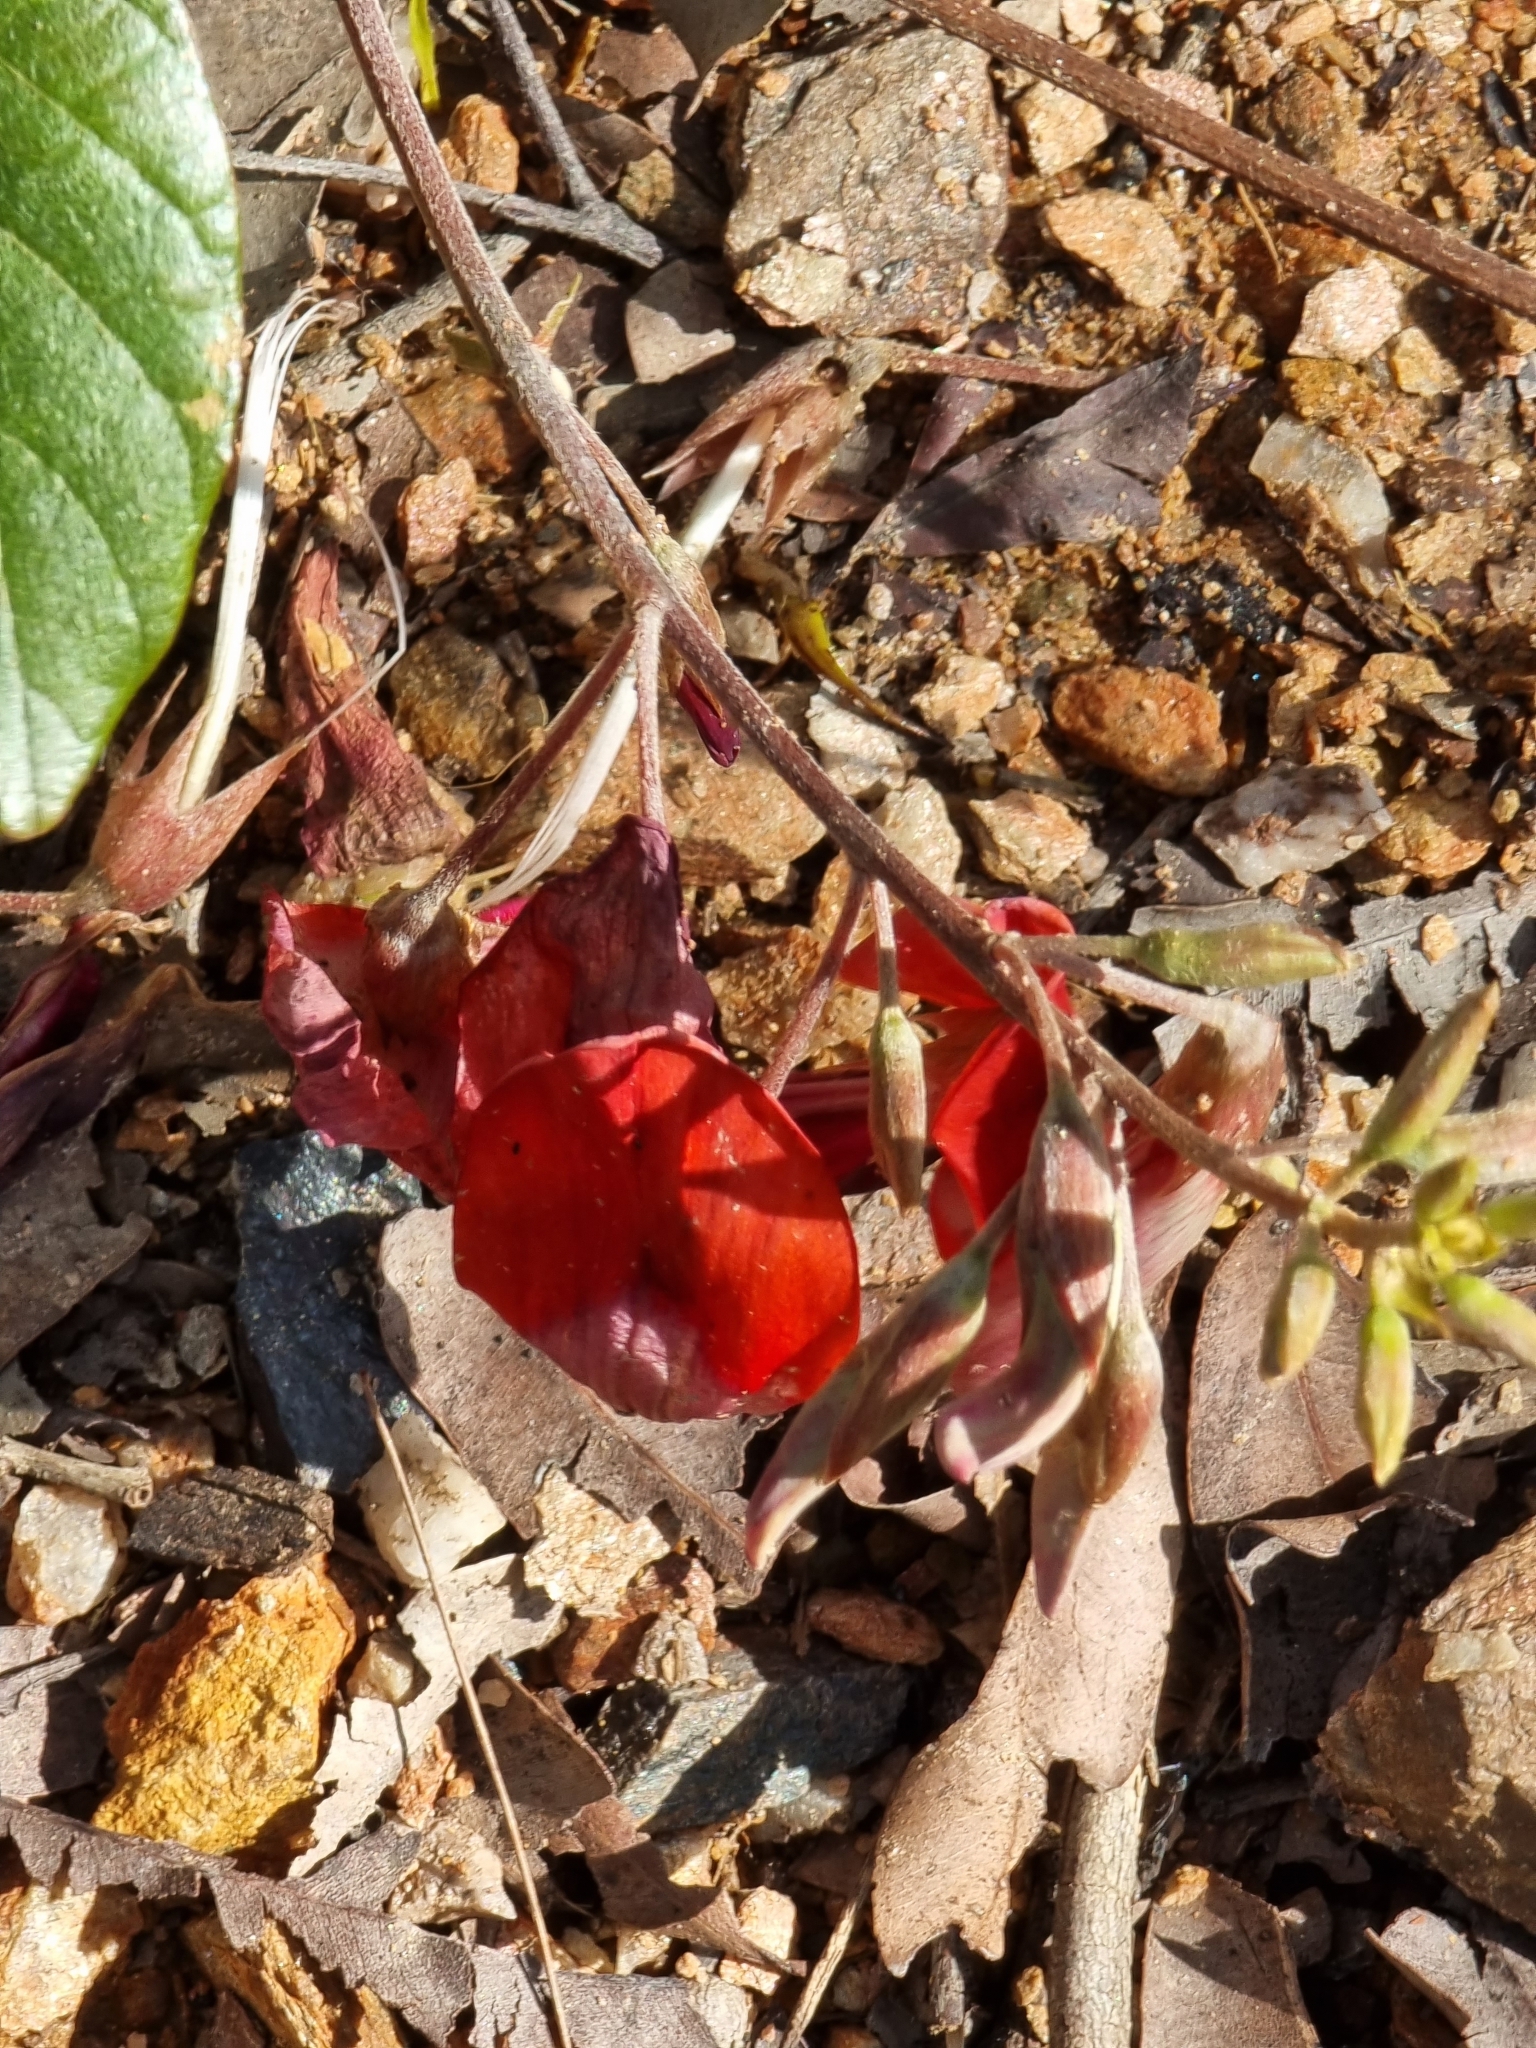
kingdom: Plantae
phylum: Tracheophyta
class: Magnoliopsida
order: Fabales
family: Fabaceae
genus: Kennedia
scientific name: Kennedia rubicunda
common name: Red kennedy-pea
